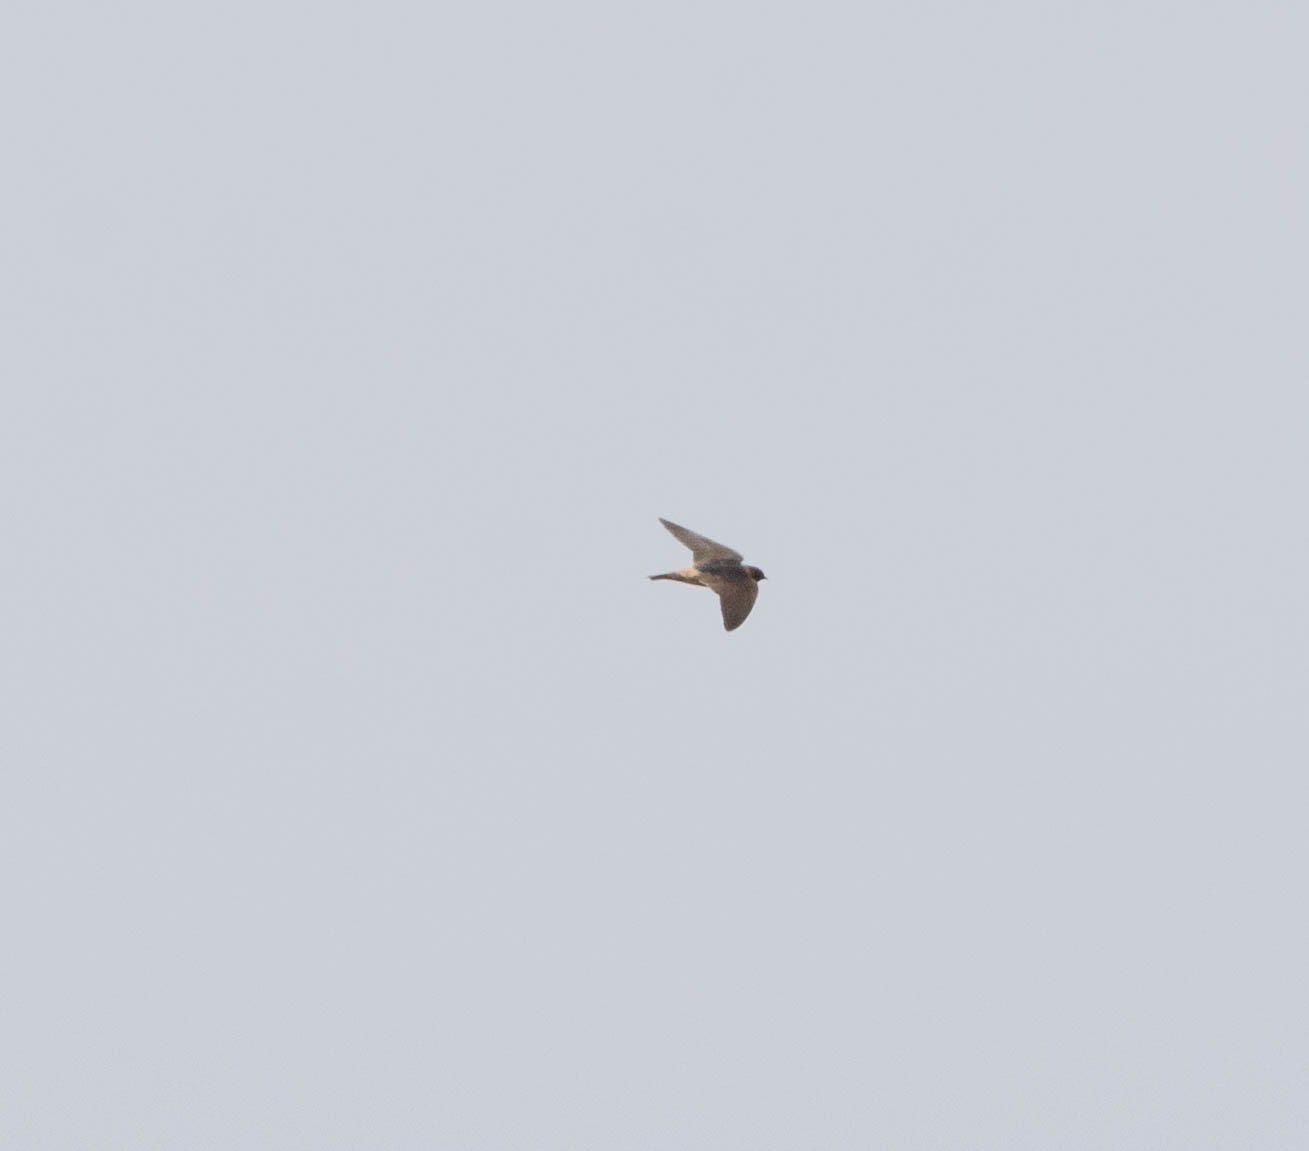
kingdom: Animalia
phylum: Chordata
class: Aves
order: Passeriformes
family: Hirundinidae
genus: Petrochelidon
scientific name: Petrochelidon
